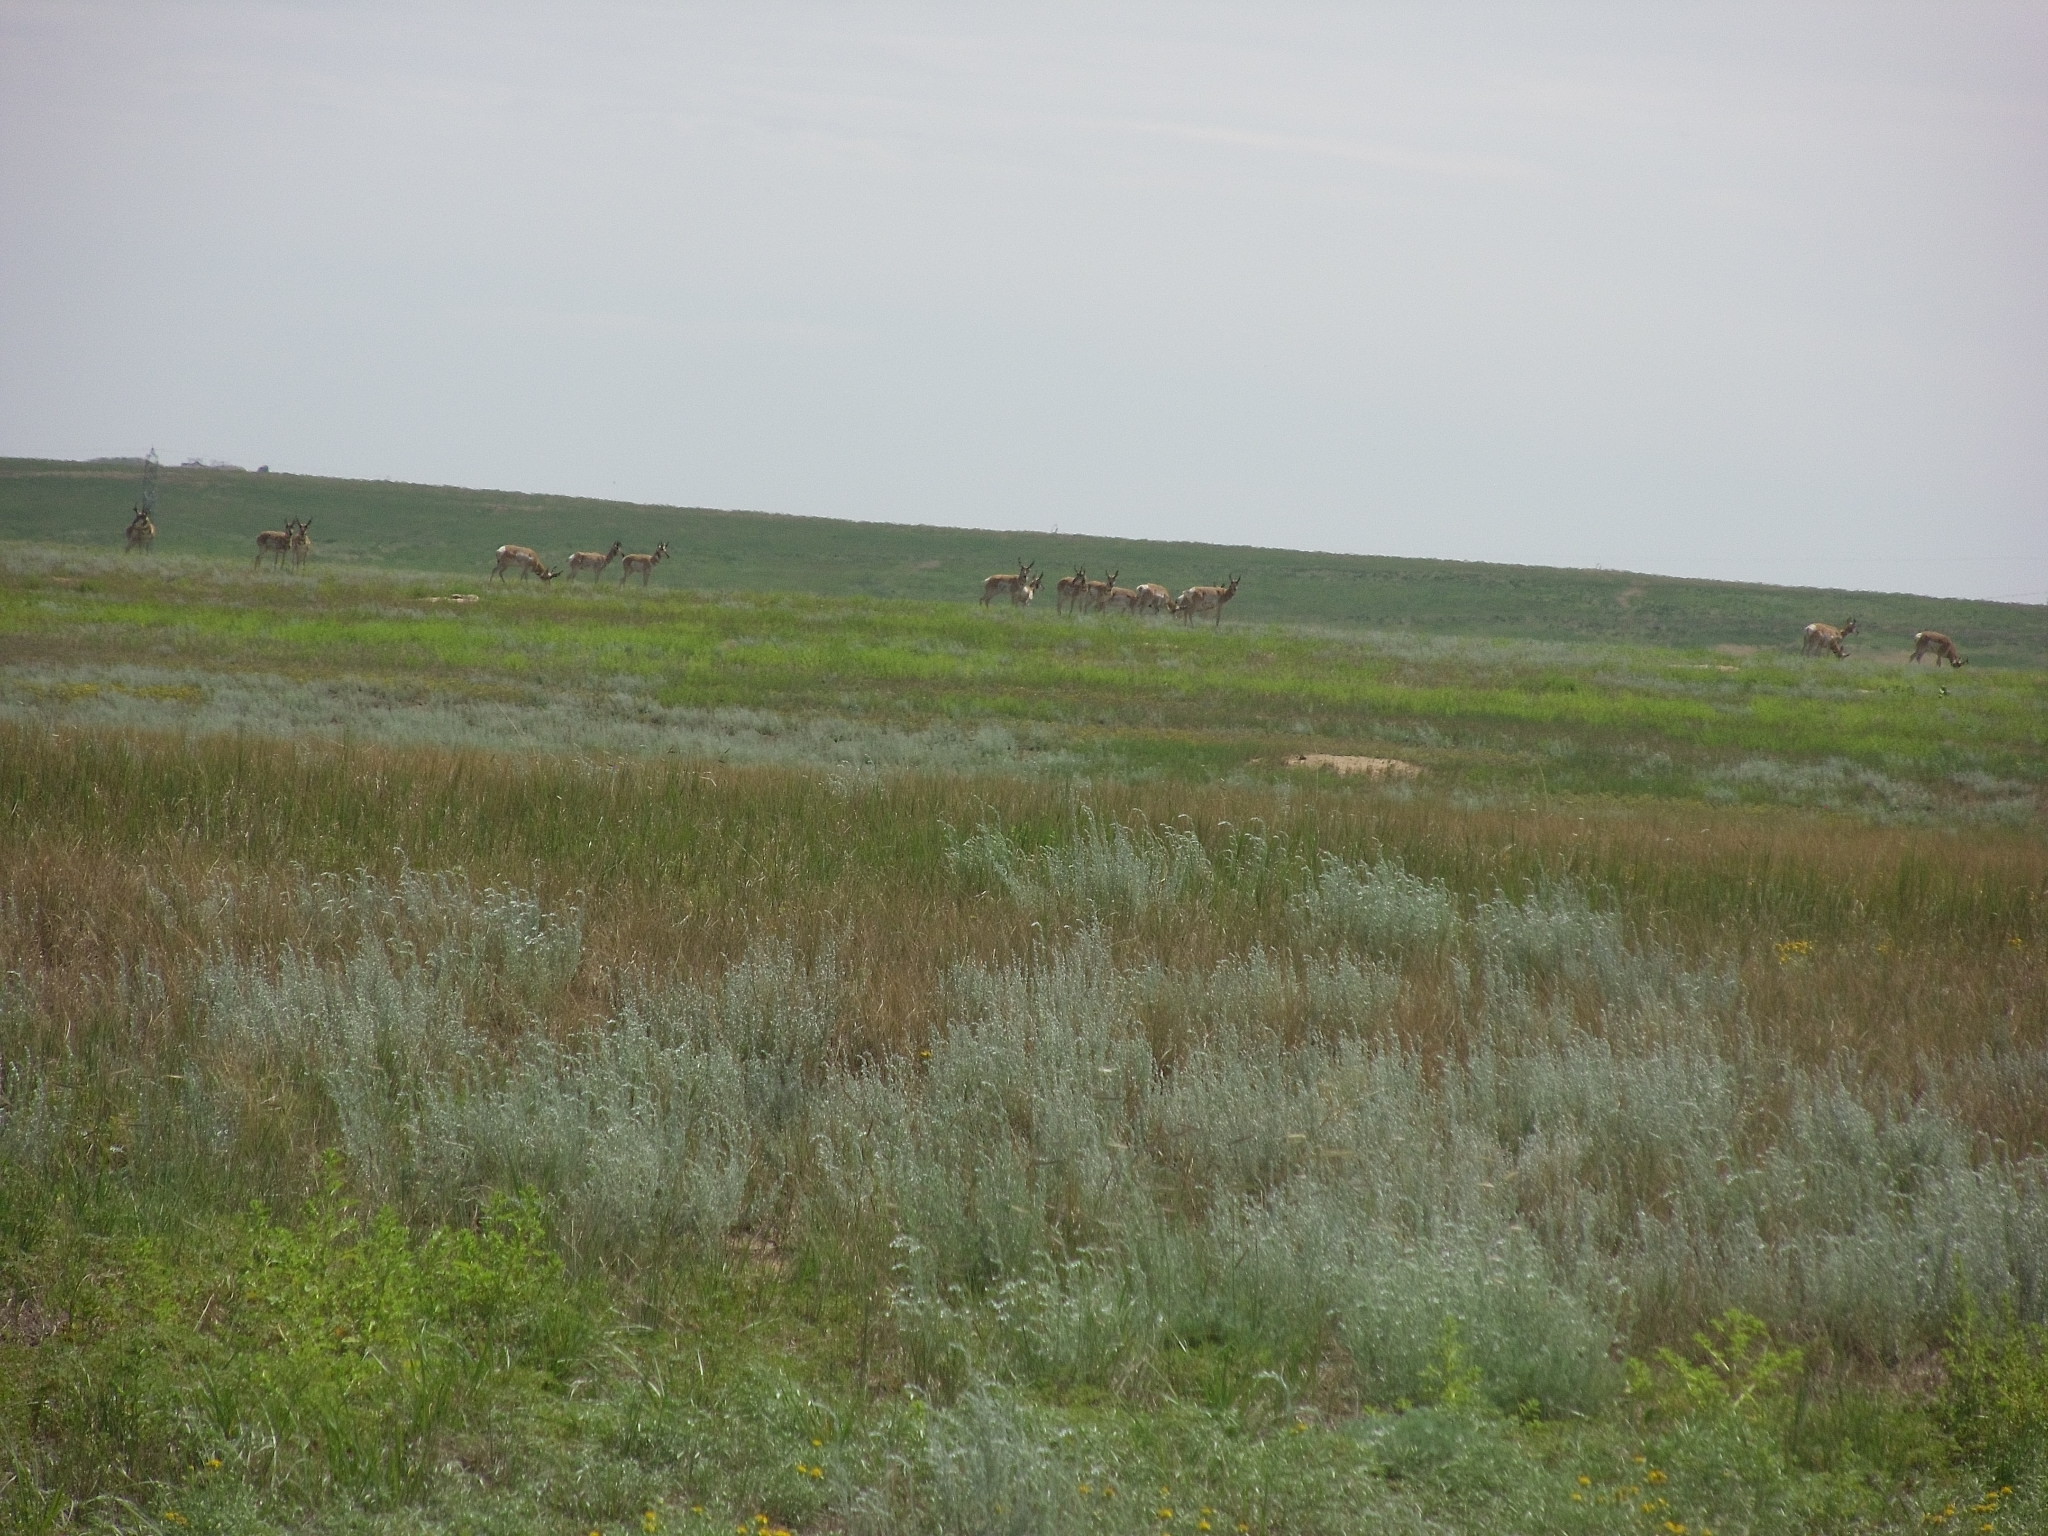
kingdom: Animalia
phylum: Chordata
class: Mammalia
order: Artiodactyla
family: Antilocapridae
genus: Antilocapra
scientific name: Antilocapra americana
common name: Pronghorn
